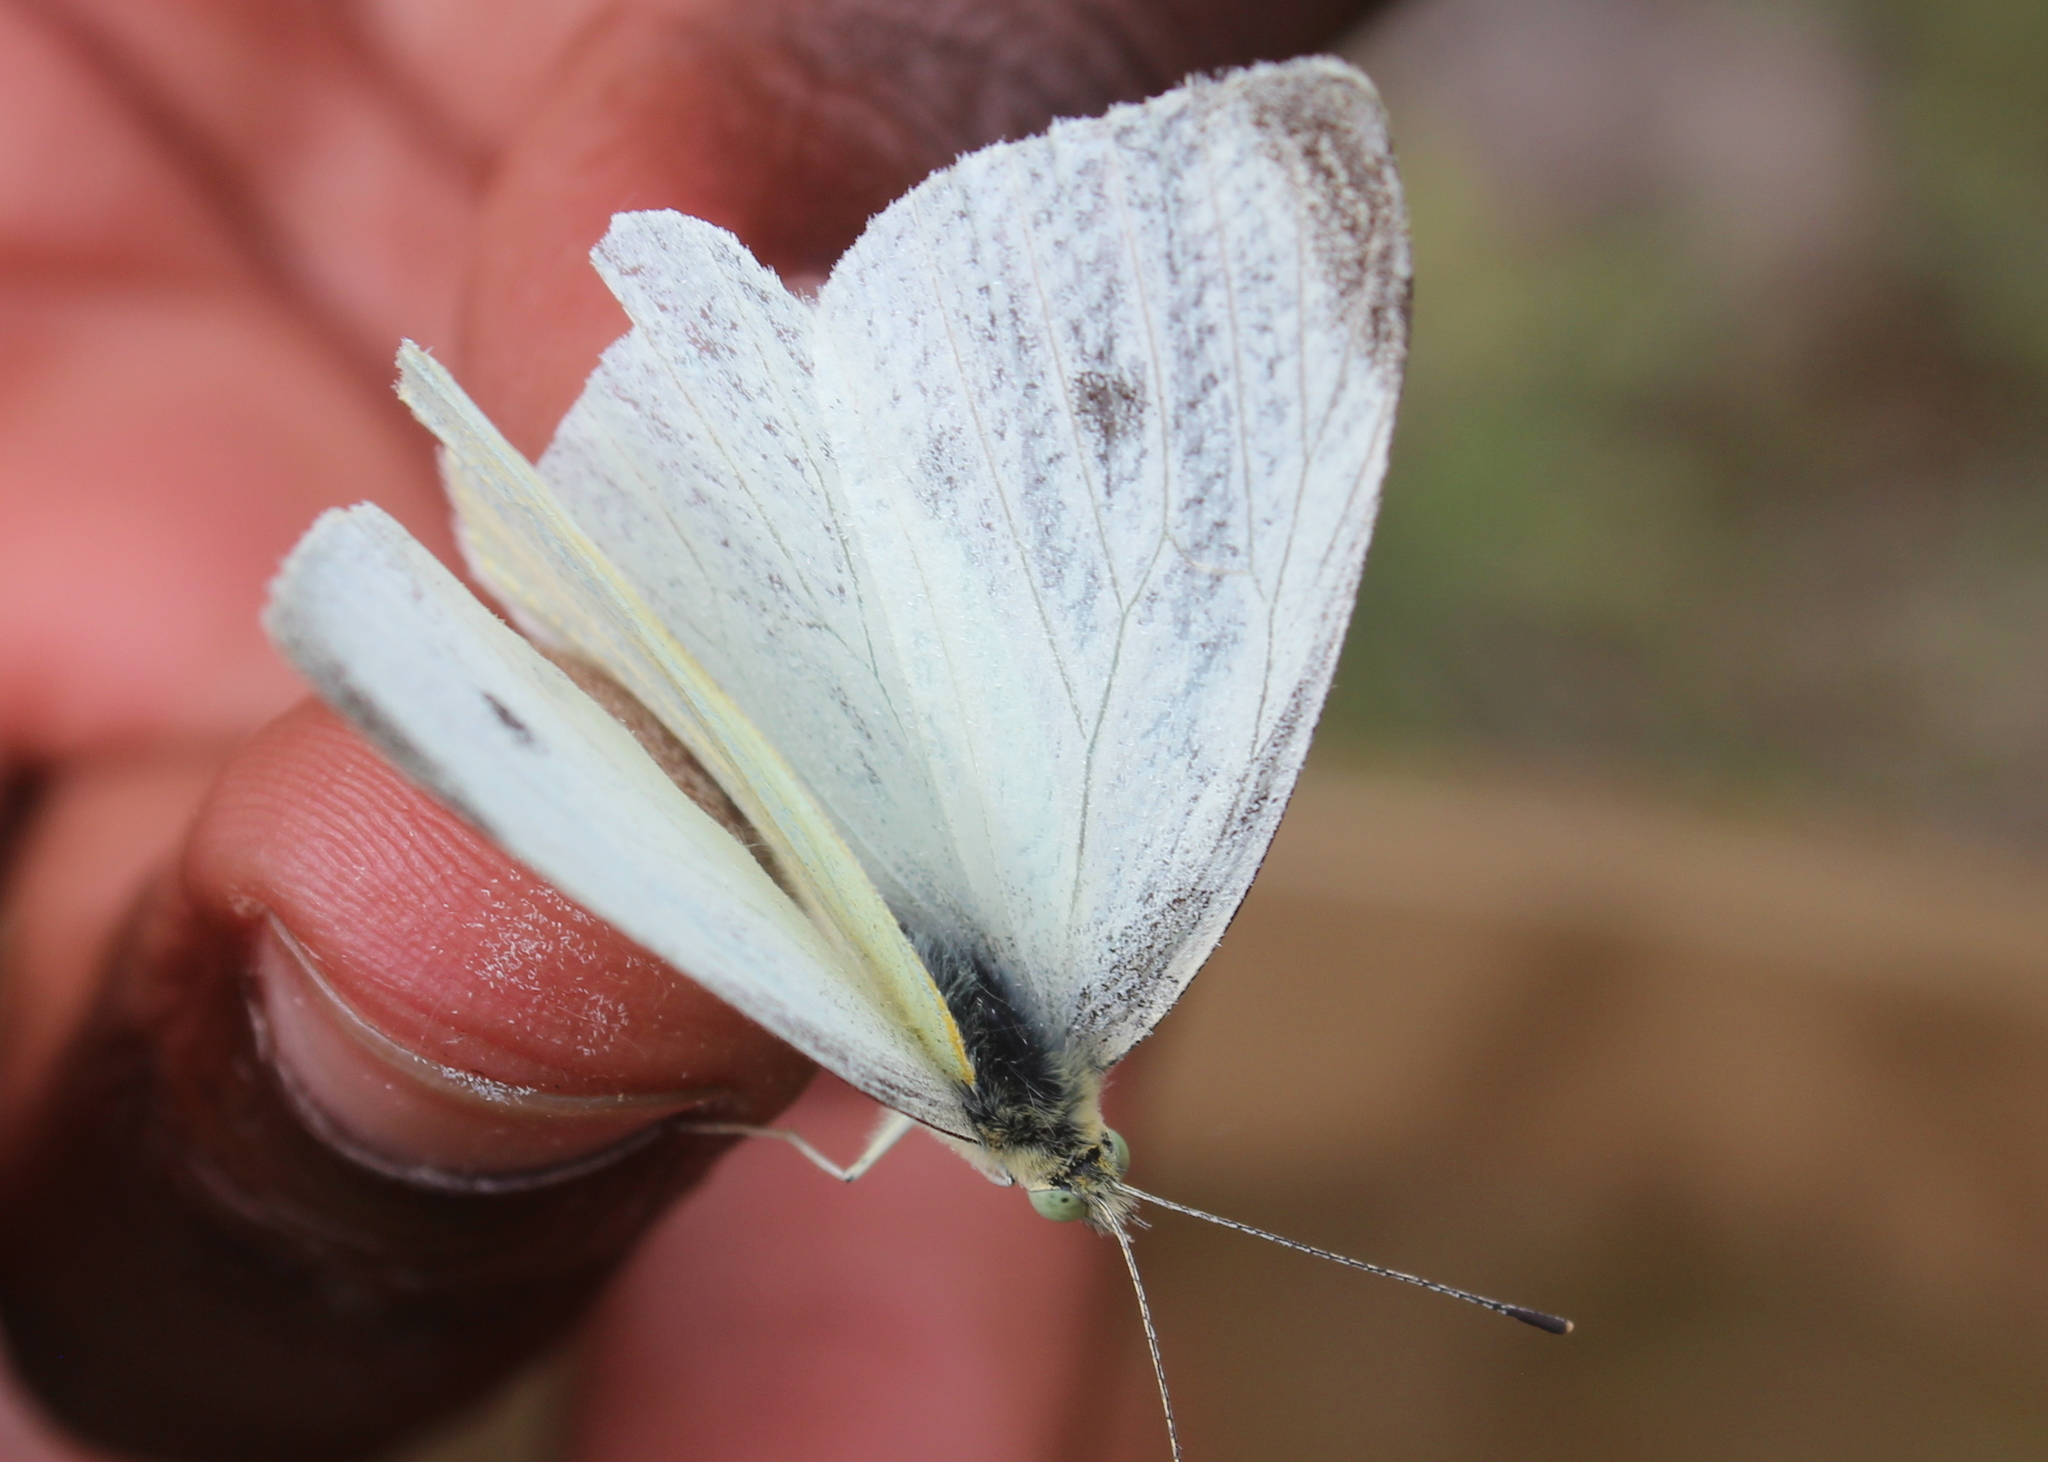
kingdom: Animalia
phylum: Arthropoda
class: Insecta
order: Lepidoptera
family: Pieridae
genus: Pieris
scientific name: Pieris rapae
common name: Small white
